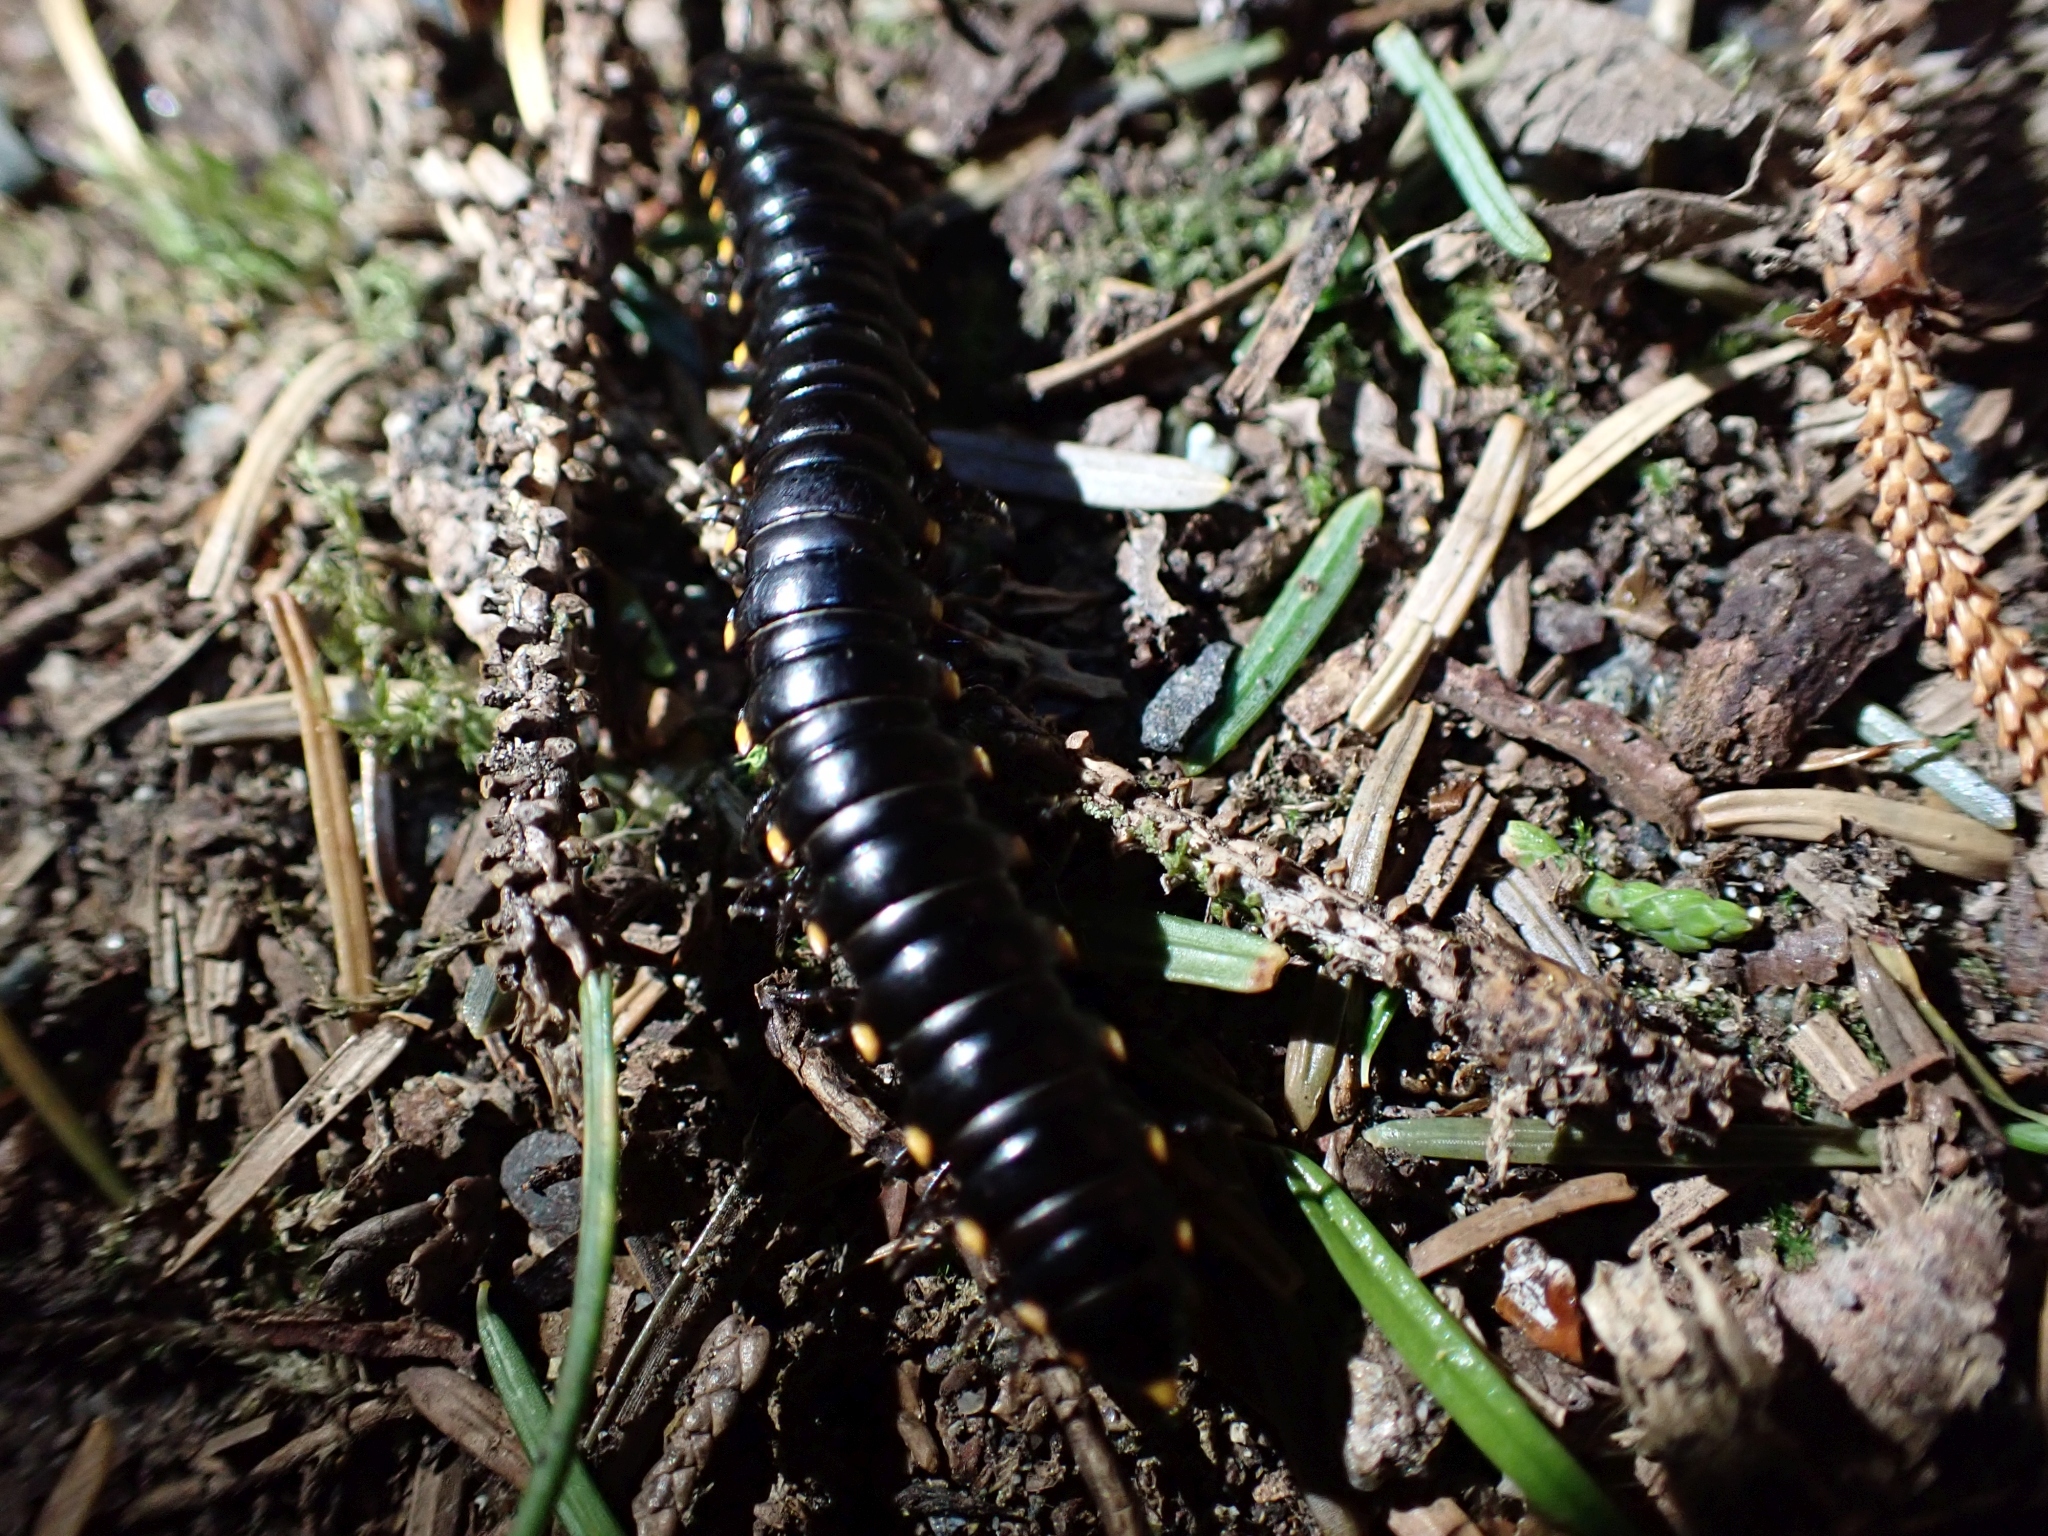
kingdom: Animalia
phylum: Arthropoda
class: Diplopoda
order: Polydesmida
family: Xystodesmidae
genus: Harpaphe
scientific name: Harpaphe haydeniana
